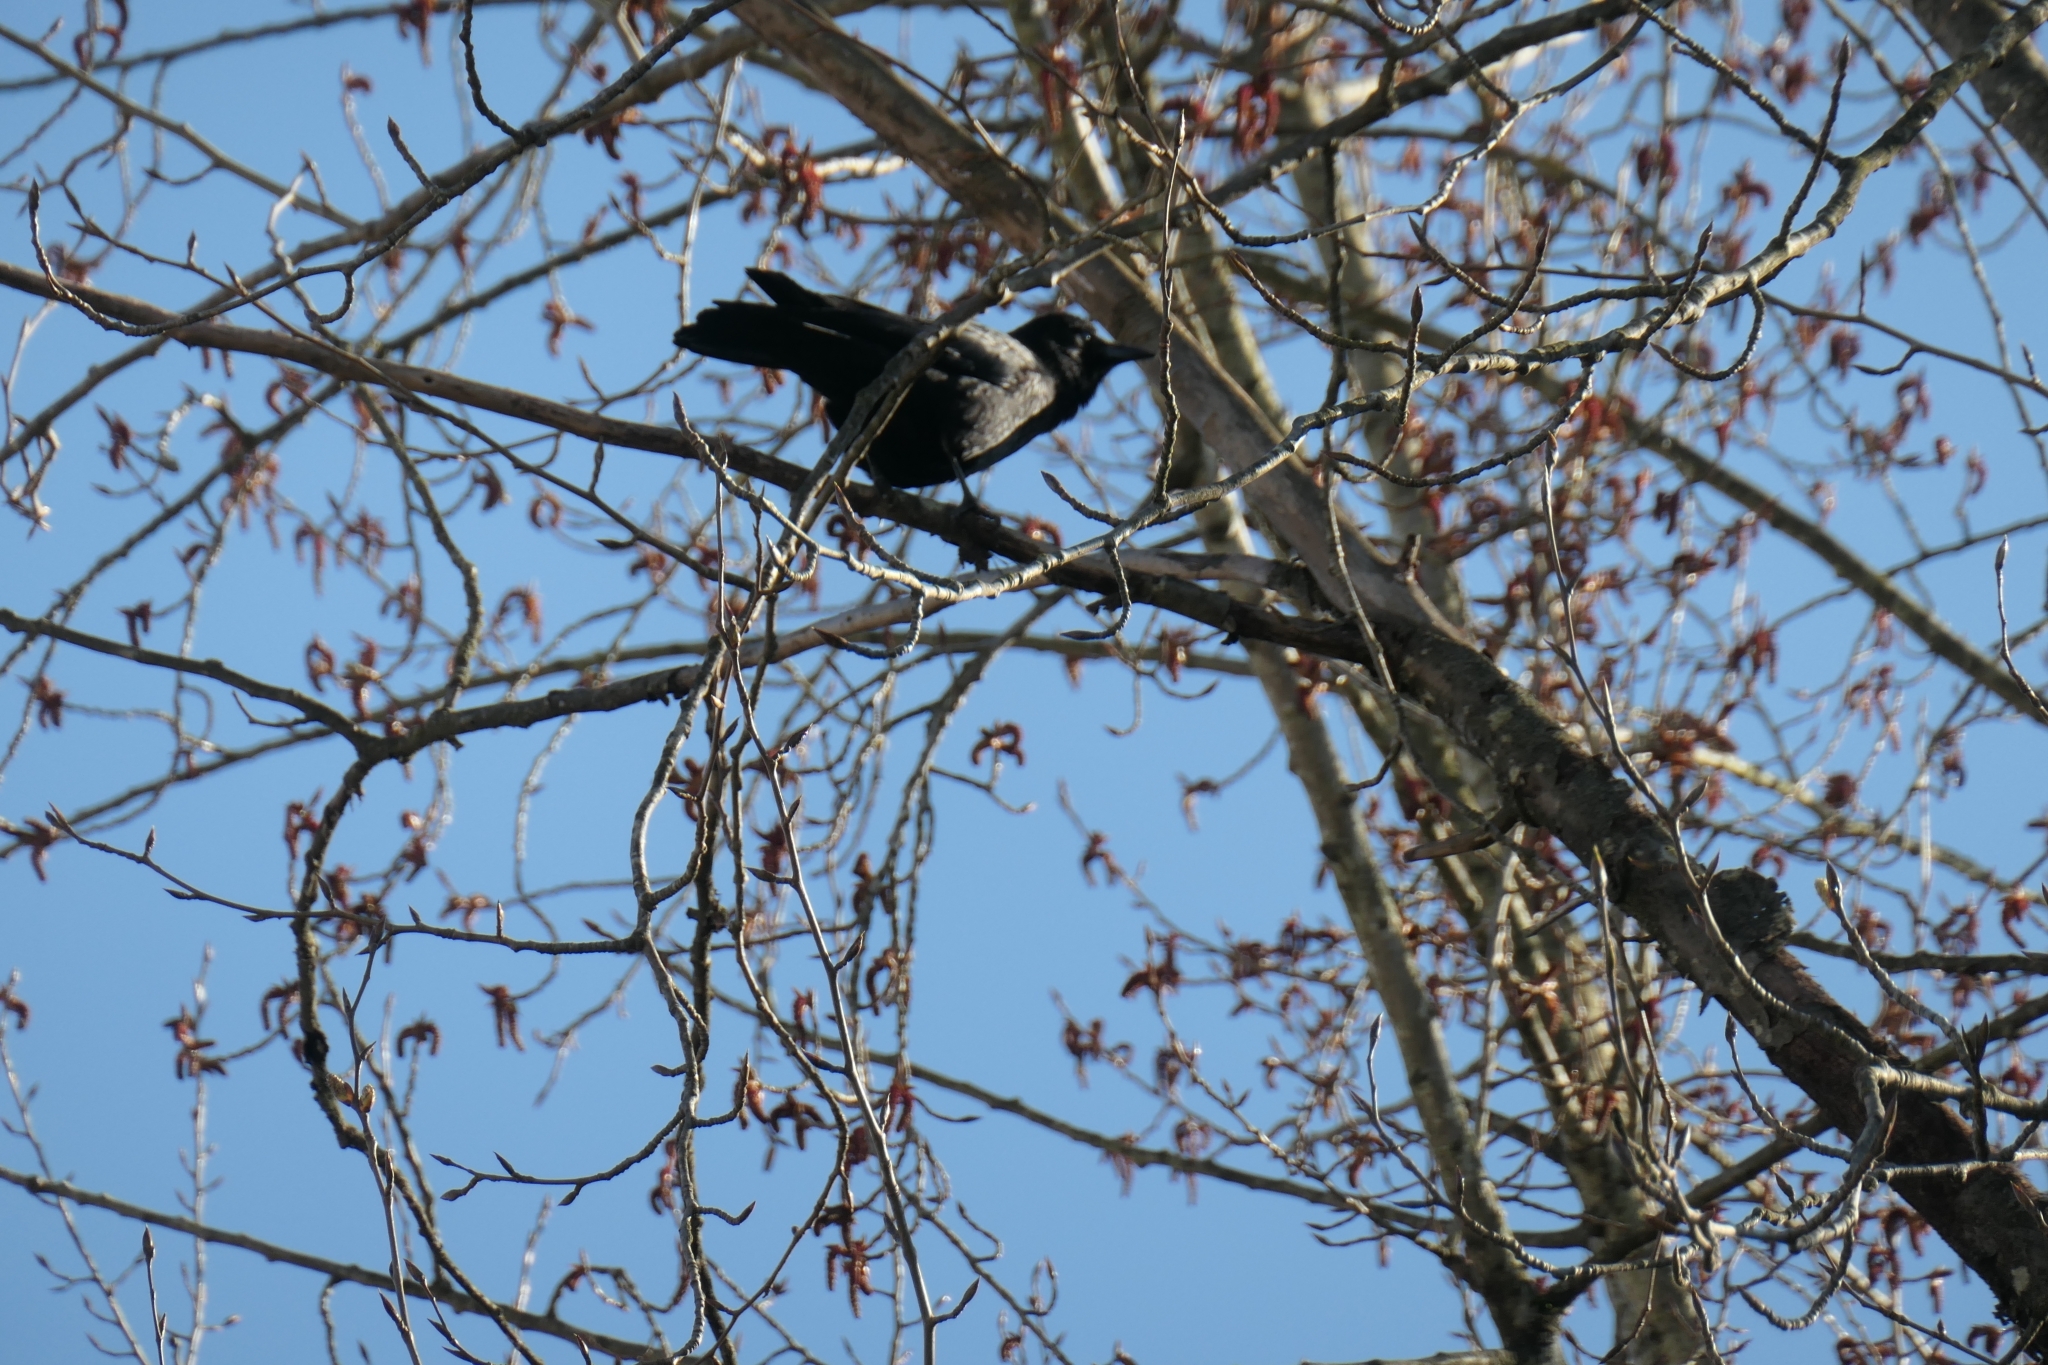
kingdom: Animalia
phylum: Chordata
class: Aves
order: Passeriformes
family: Corvidae
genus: Corvus
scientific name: Corvus brachyrhynchos
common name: American crow
